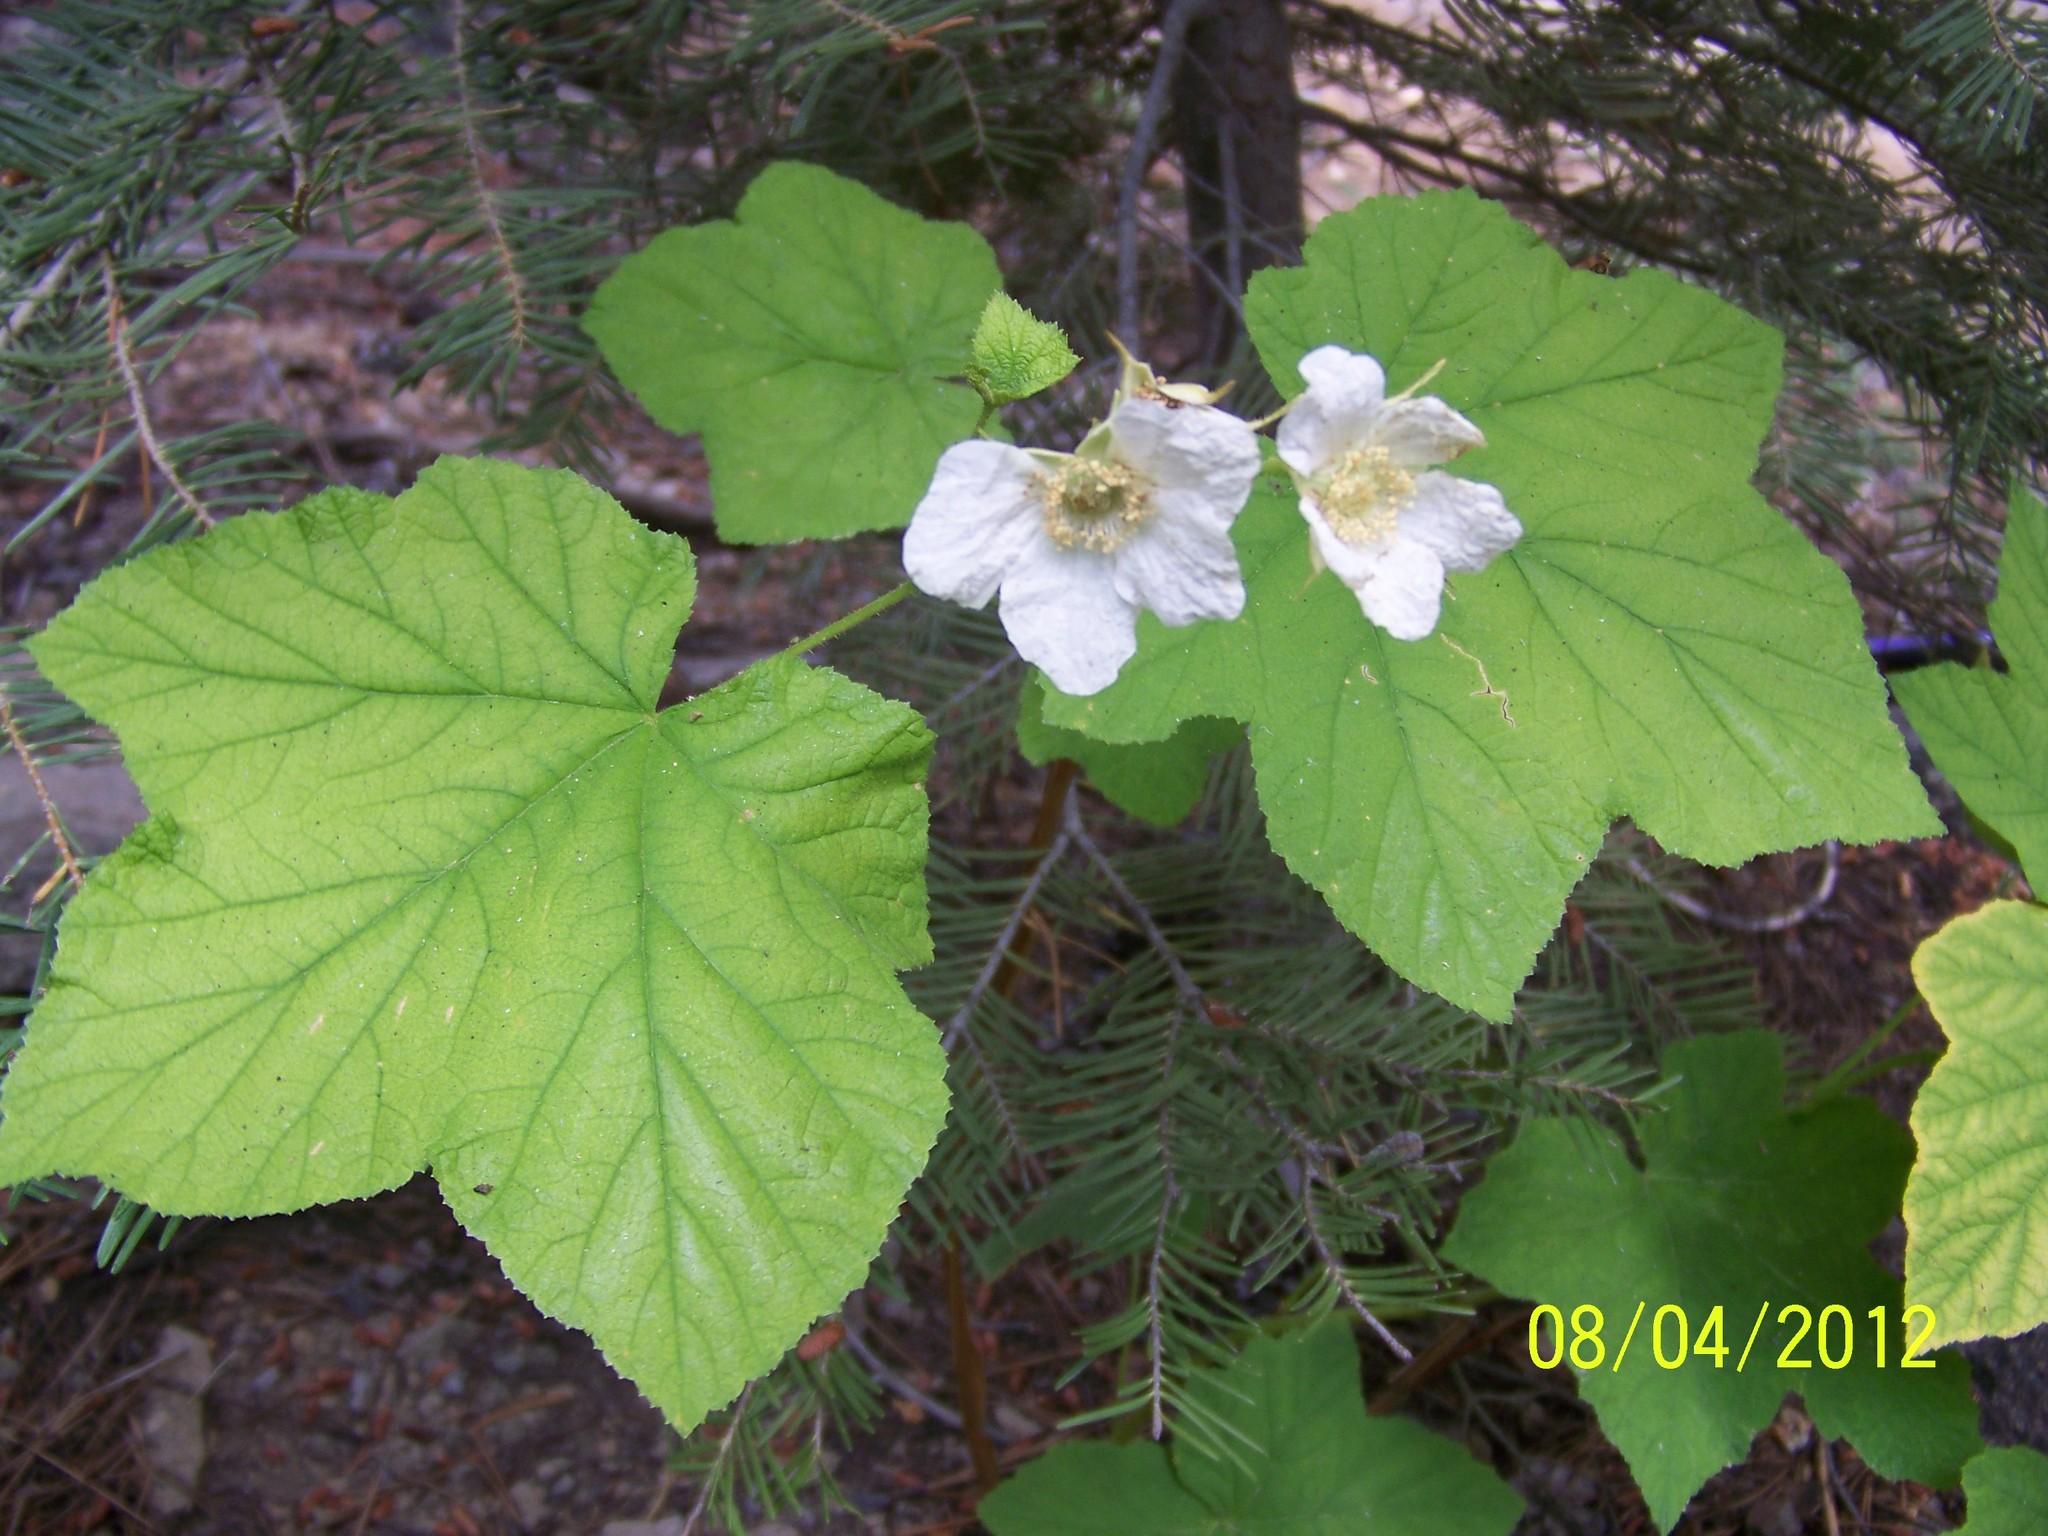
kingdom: Plantae
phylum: Tracheophyta
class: Magnoliopsida
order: Rosales
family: Rosaceae
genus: Rubus
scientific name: Rubus parviflorus
